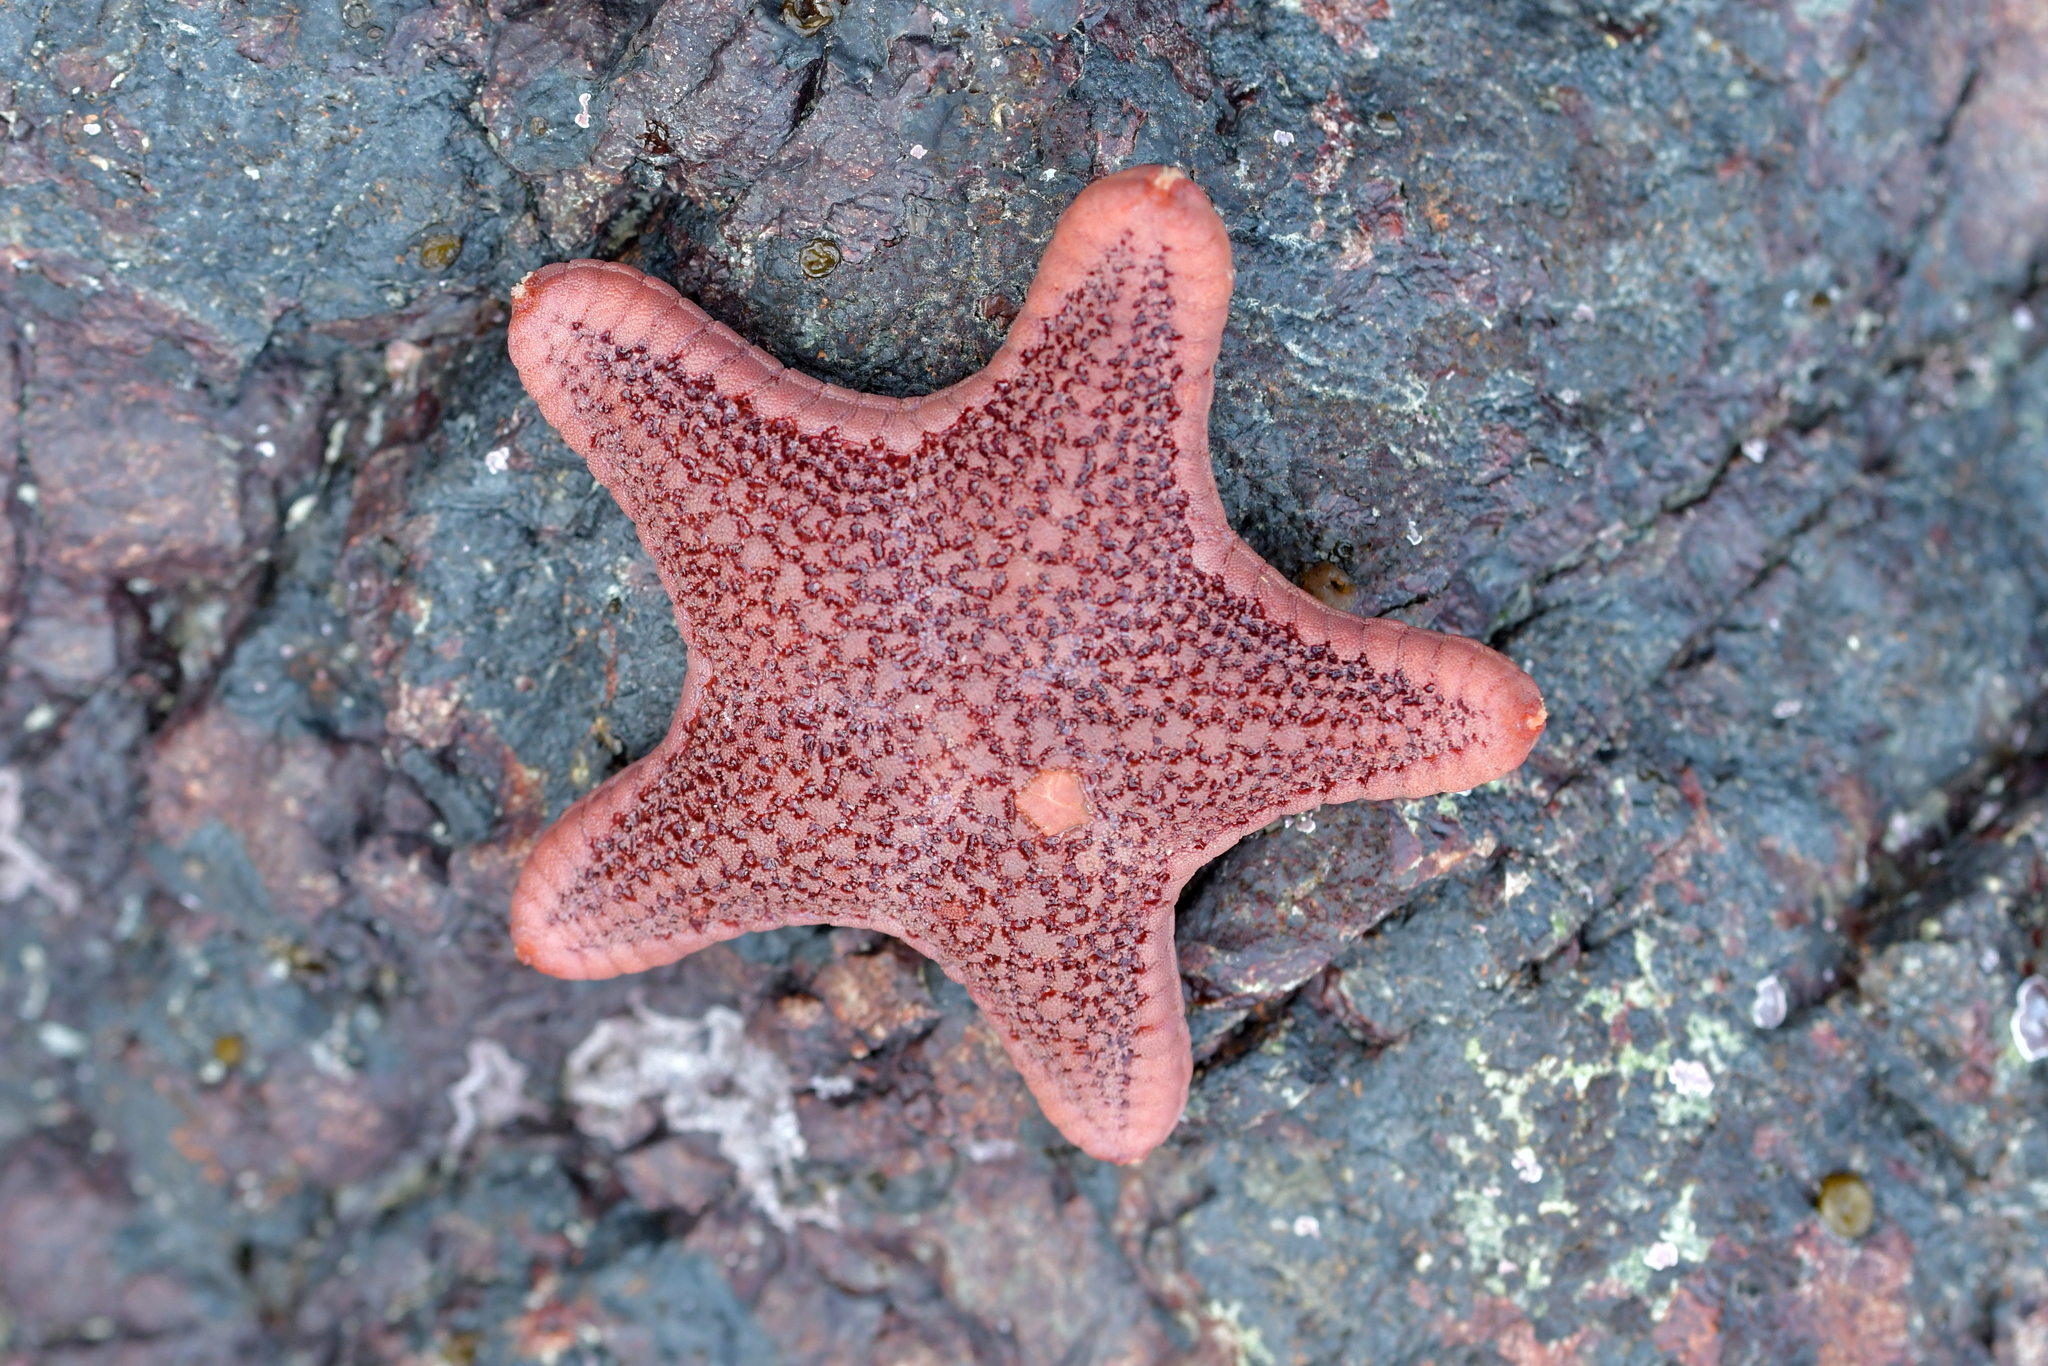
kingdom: Animalia
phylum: Echinodermata
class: Asteroidea
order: Valvatida
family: Odontasteridae
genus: Diplodontias
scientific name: Diplodontias dilatatus
